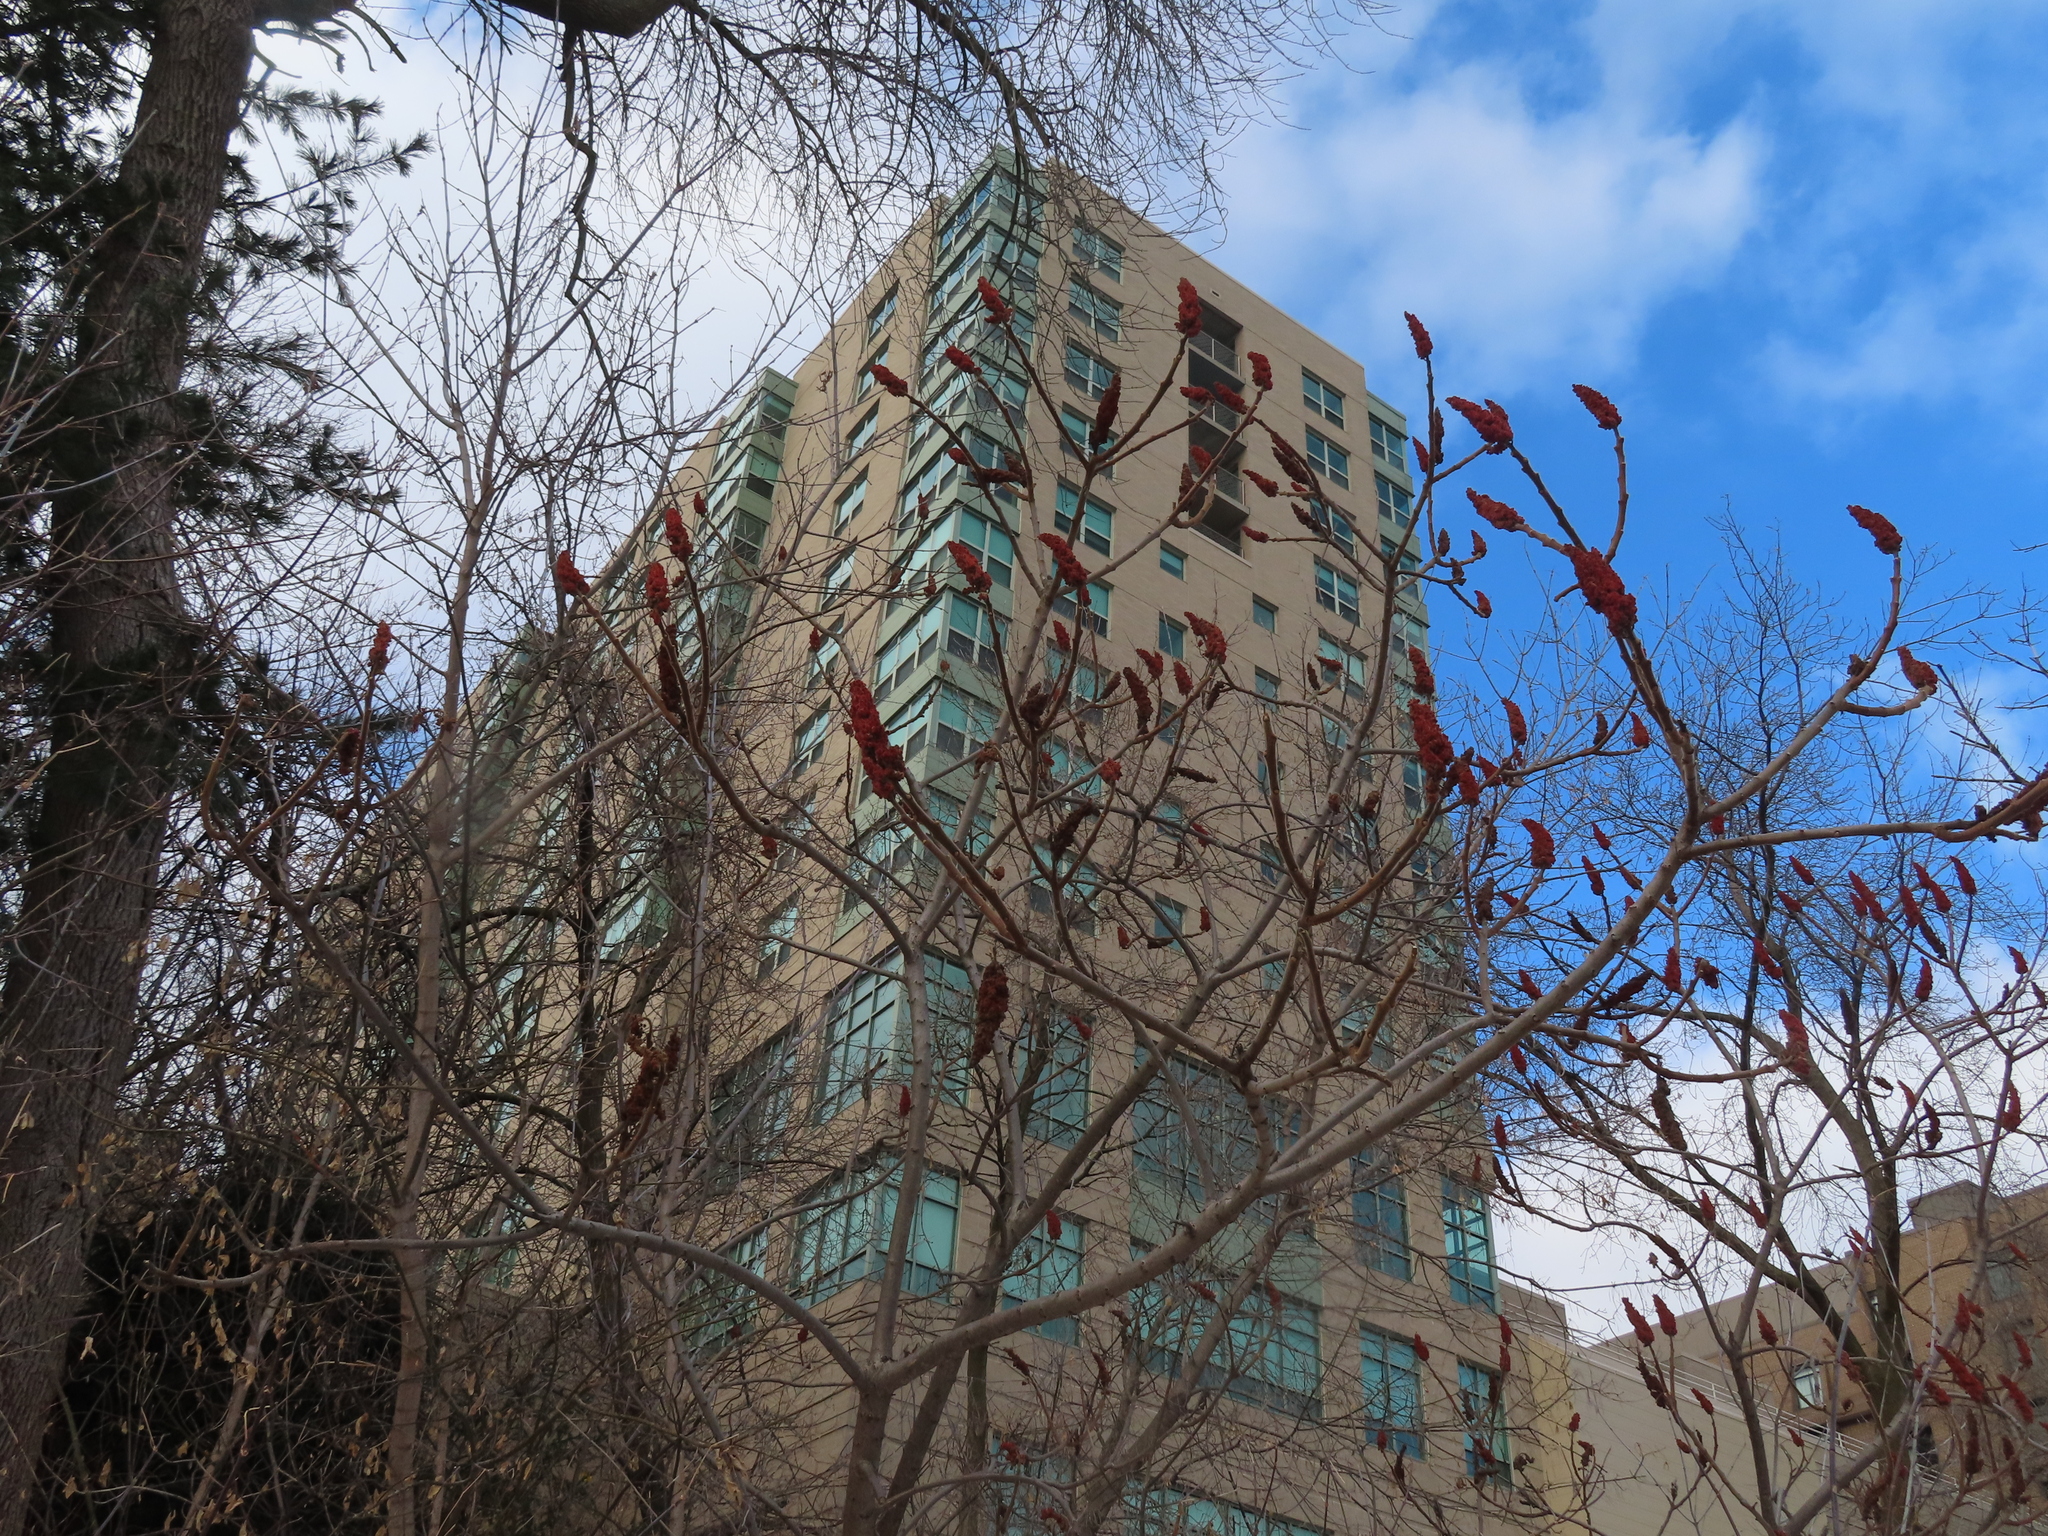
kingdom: Plantae
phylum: Tracheophyta
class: Magnoliopsida
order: Sapindales
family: Anacardiaceae
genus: Rhus
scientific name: Rhus typhina
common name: Staghorn sumac
